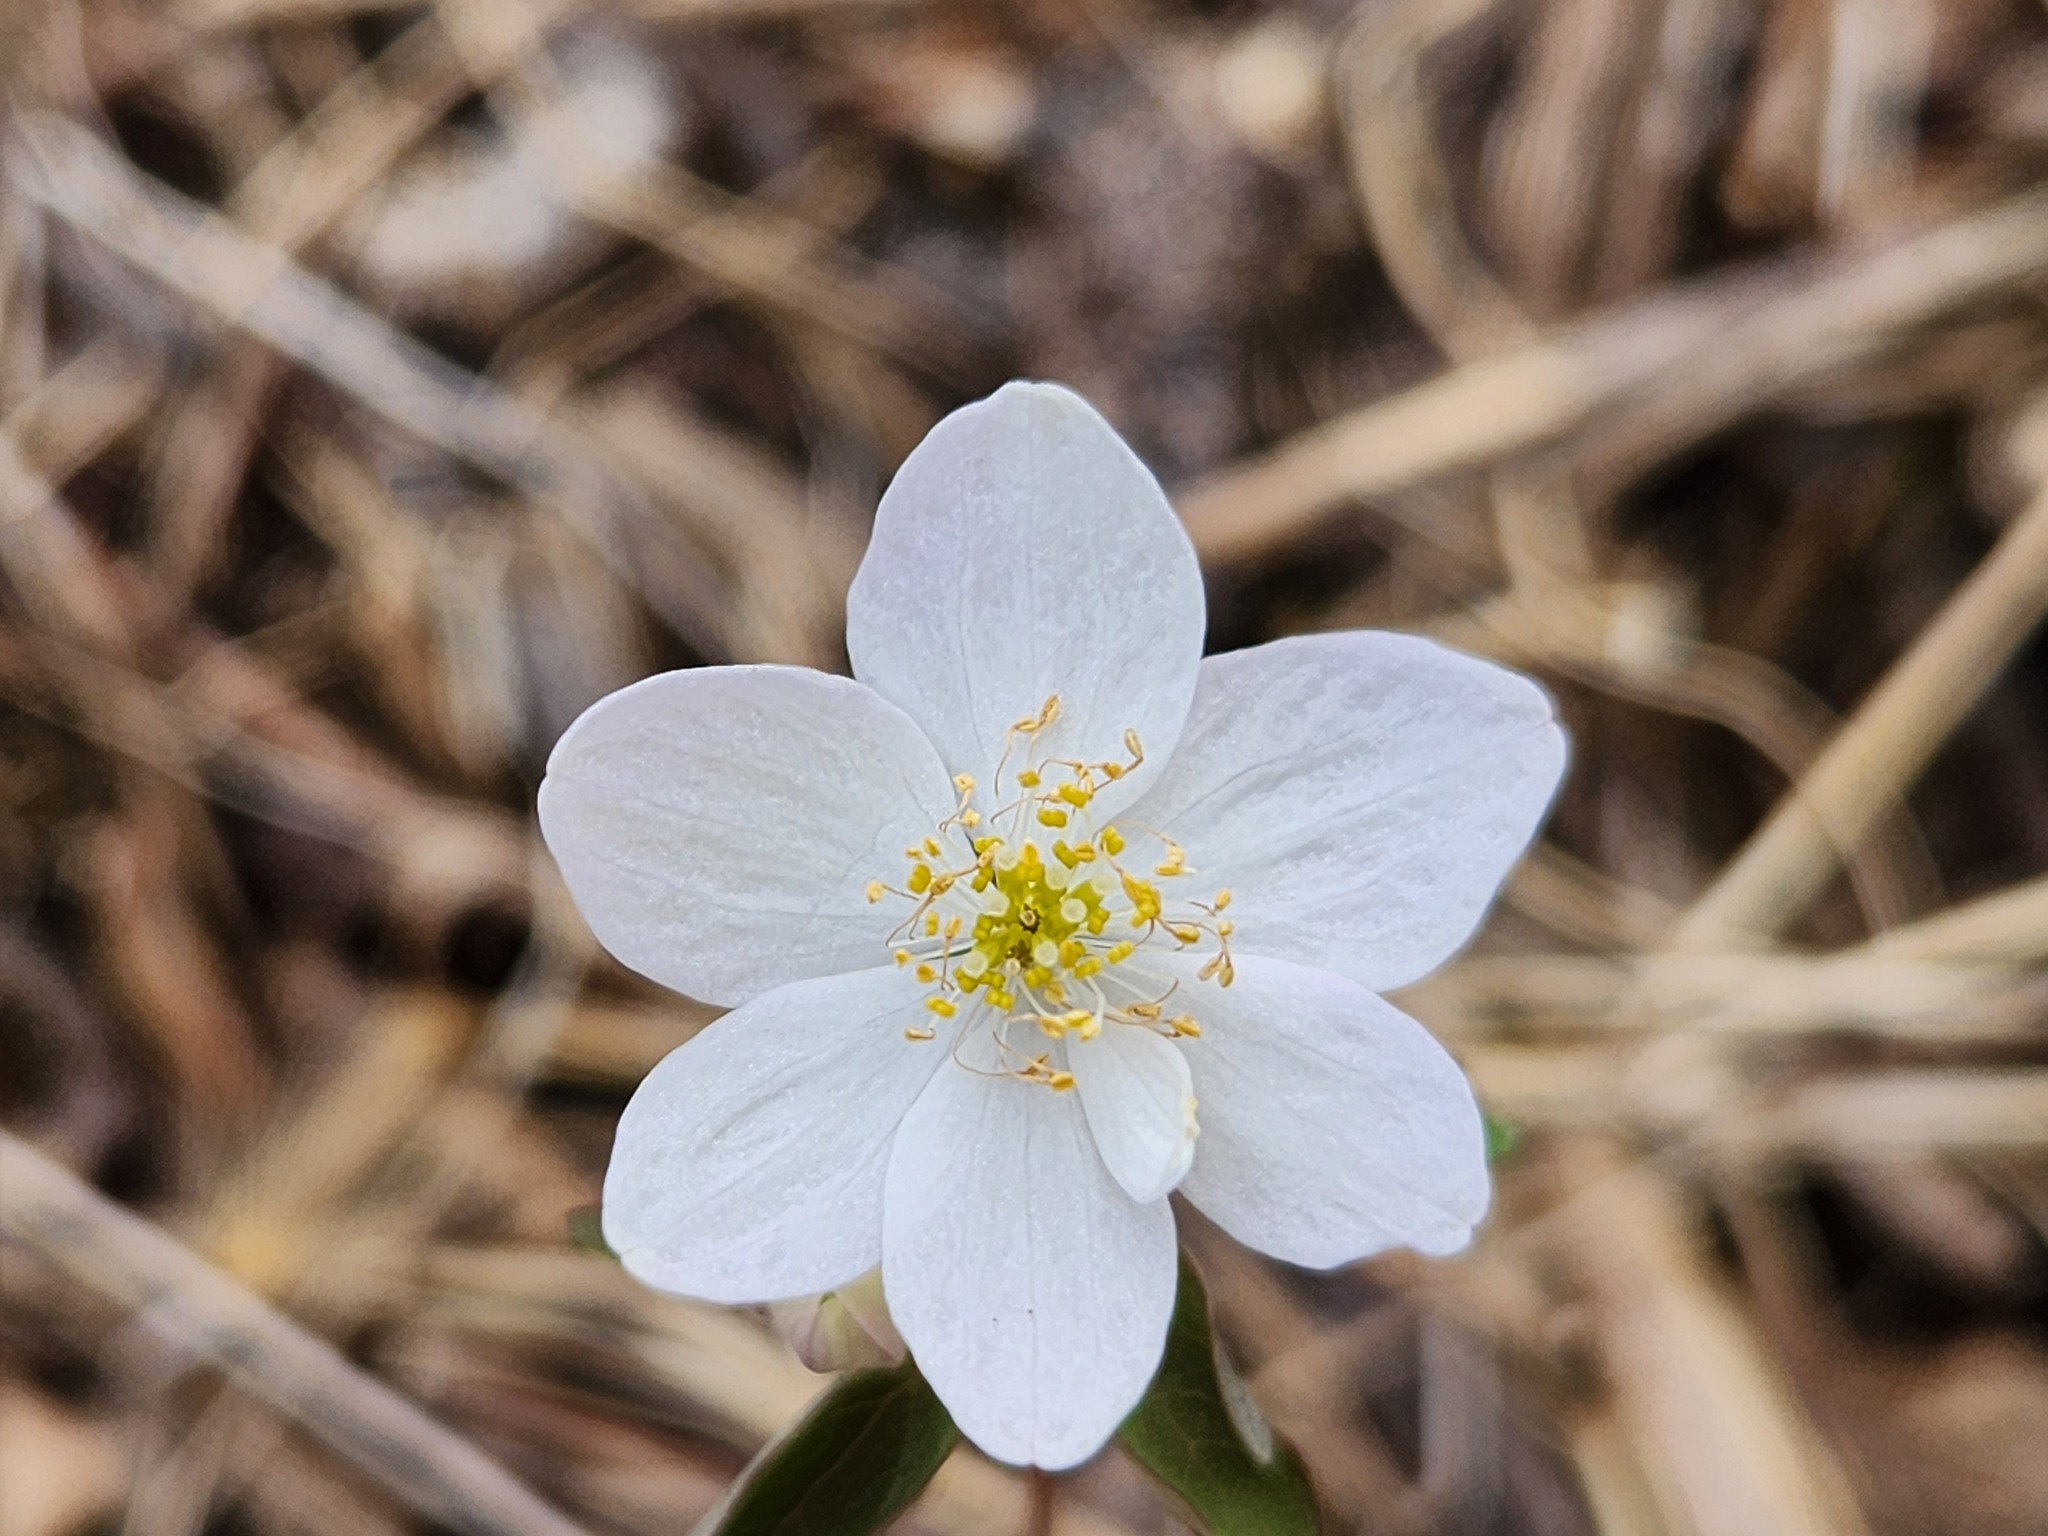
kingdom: Plantae
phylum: Tracheophyta
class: Magnoliopsida
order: Ranunculales
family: Ranunculaceae
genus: Thalictrum
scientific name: Thalictrum thalictroides
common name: Rue-anemone
